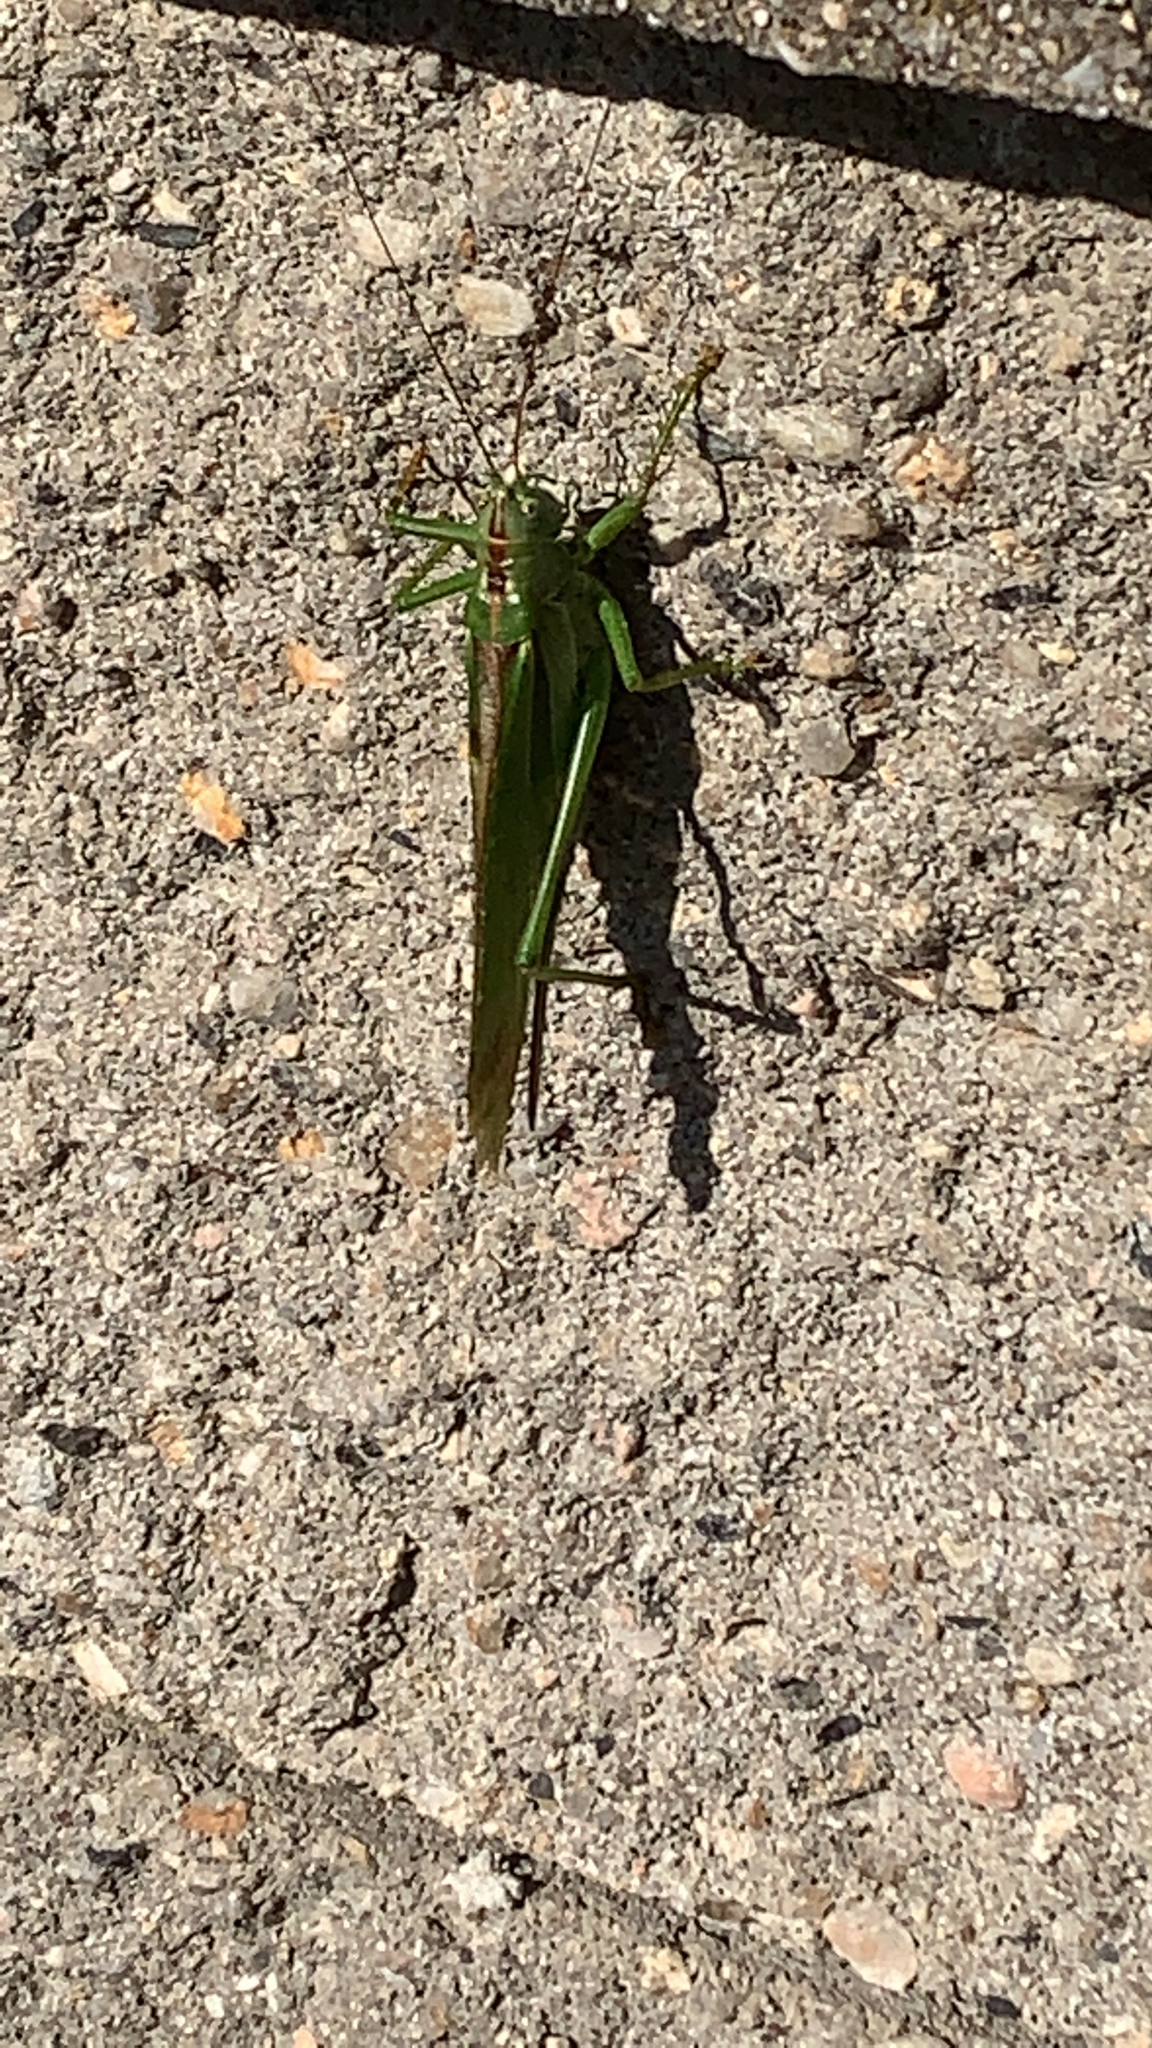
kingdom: Animalia
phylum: Arthropoda
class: Insecta
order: Orthoptera
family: Tettigoniidae
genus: Tettigonia
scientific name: Tettigonia viridissima
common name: Great green bush-cricket
